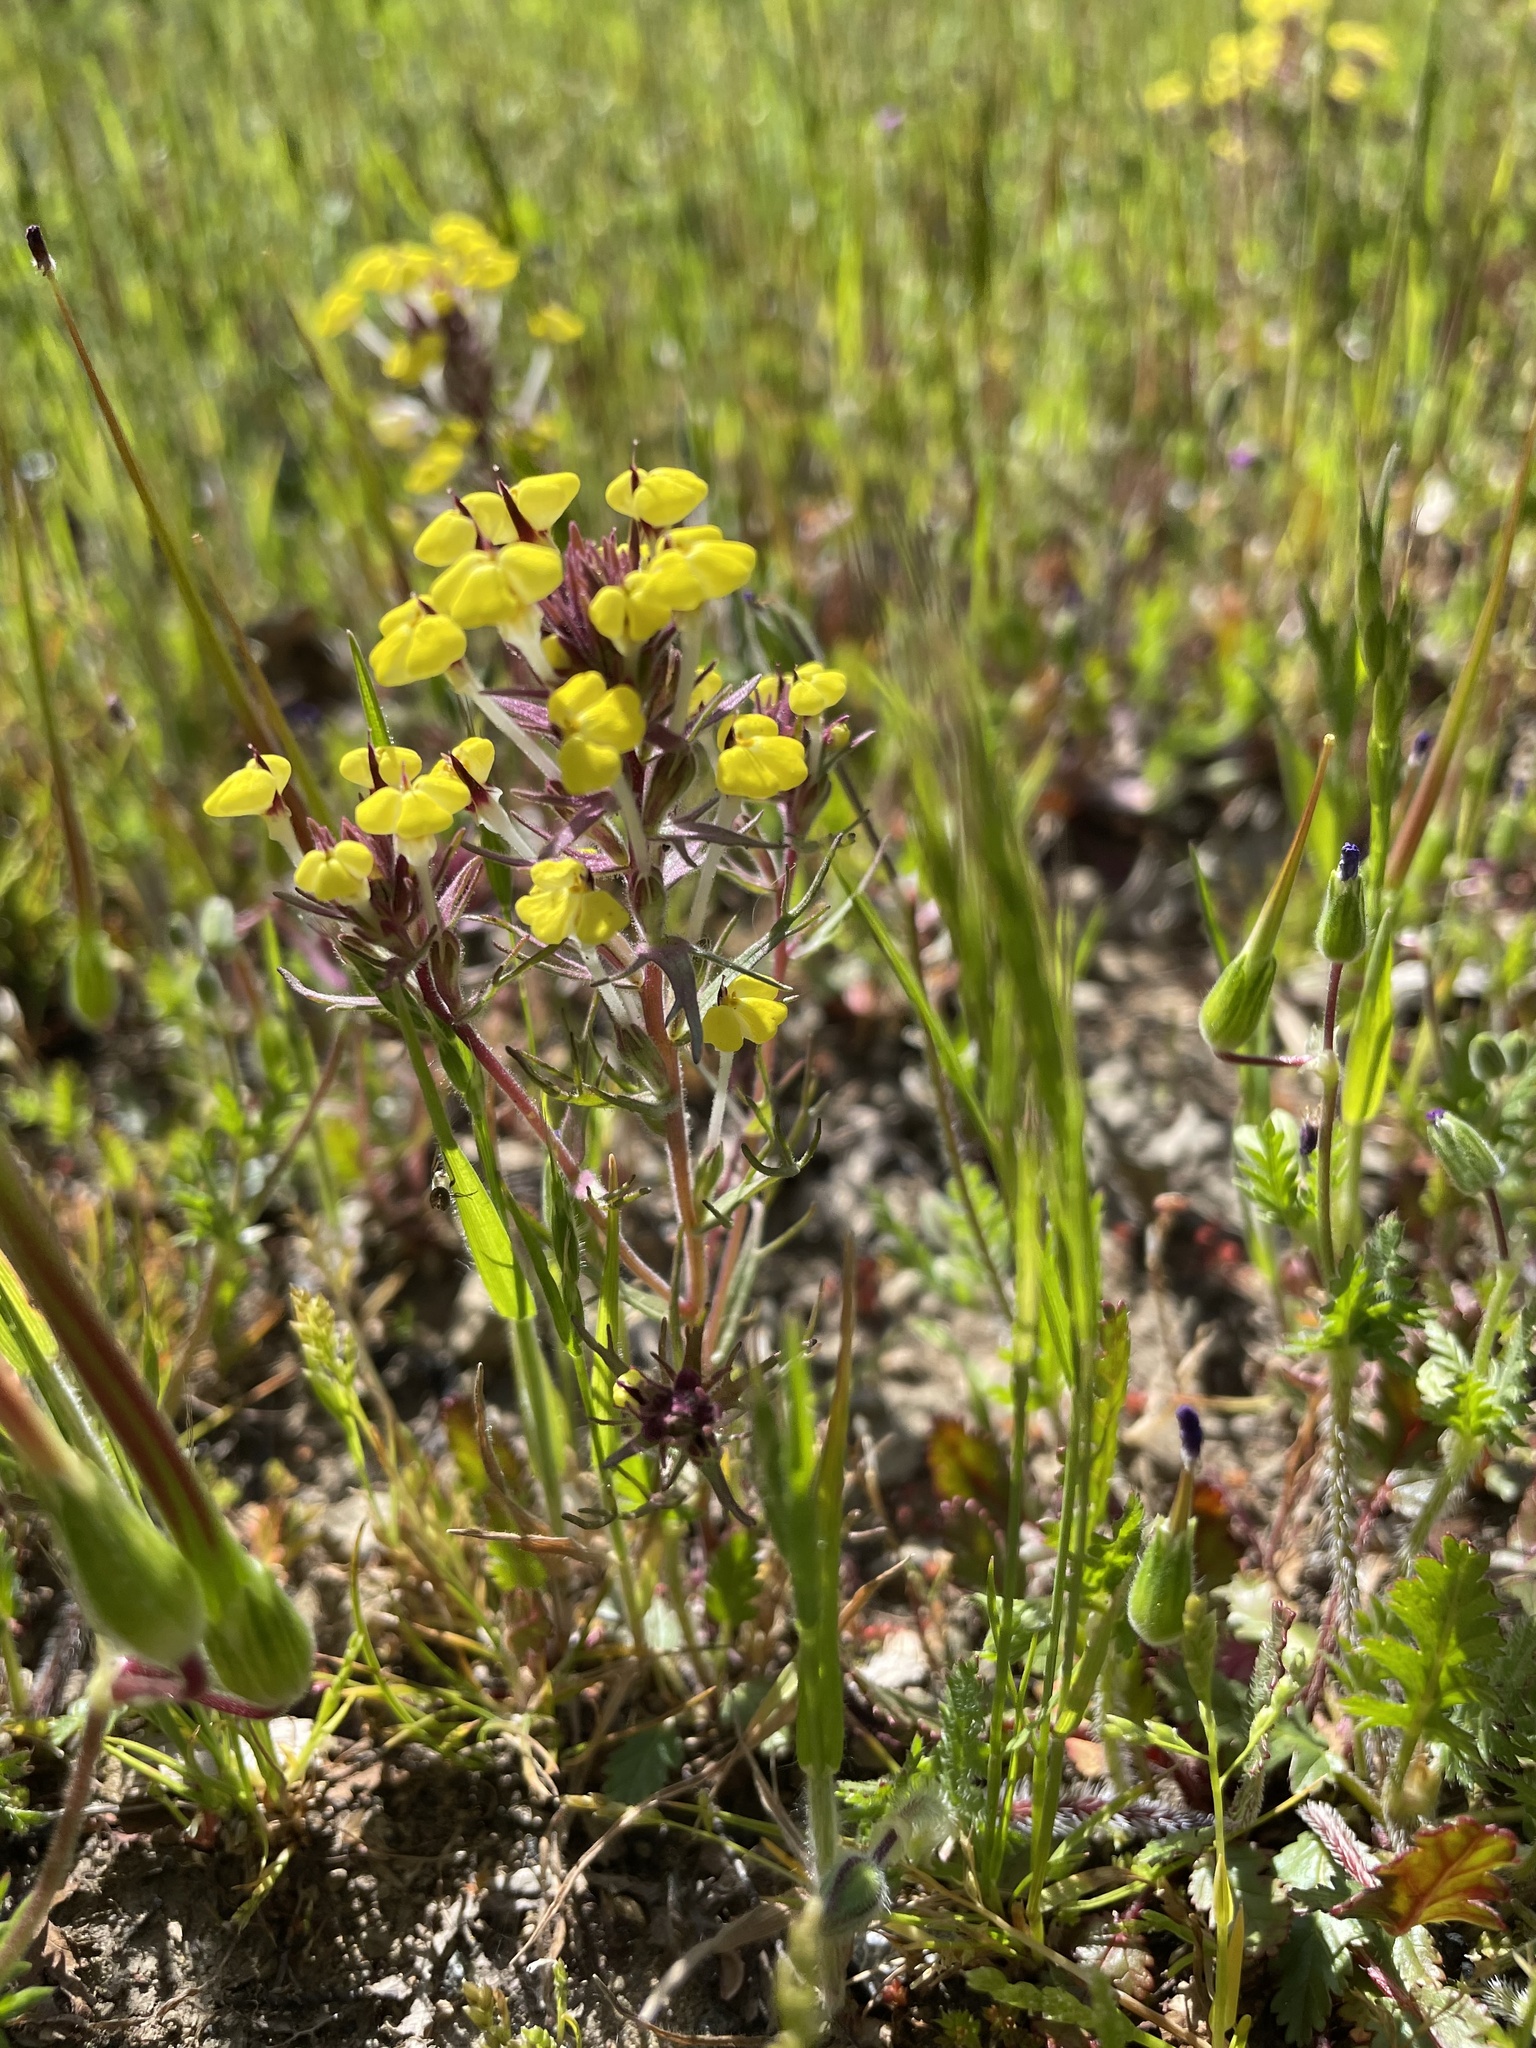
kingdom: Plantae
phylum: Tracheophyta
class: Magnoliopsida
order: Lamiales
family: Orobanchaceae
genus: Triphysaria
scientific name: Triphysaria eriantha
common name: Johnny-tuck
